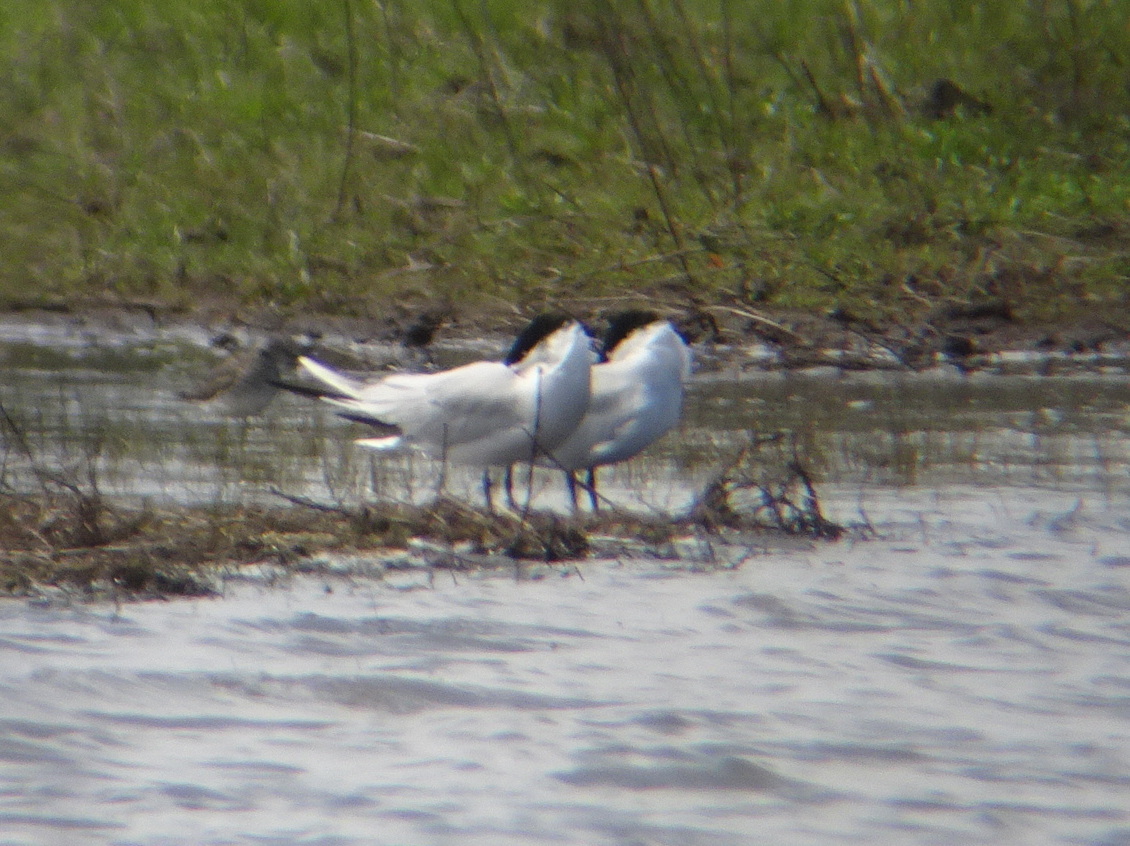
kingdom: Animalia
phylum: Chordata
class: Aves
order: Charadriiformes
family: Laridae
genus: Hydroprogne
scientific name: Hydroprogne caspia
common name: Caspian tern
